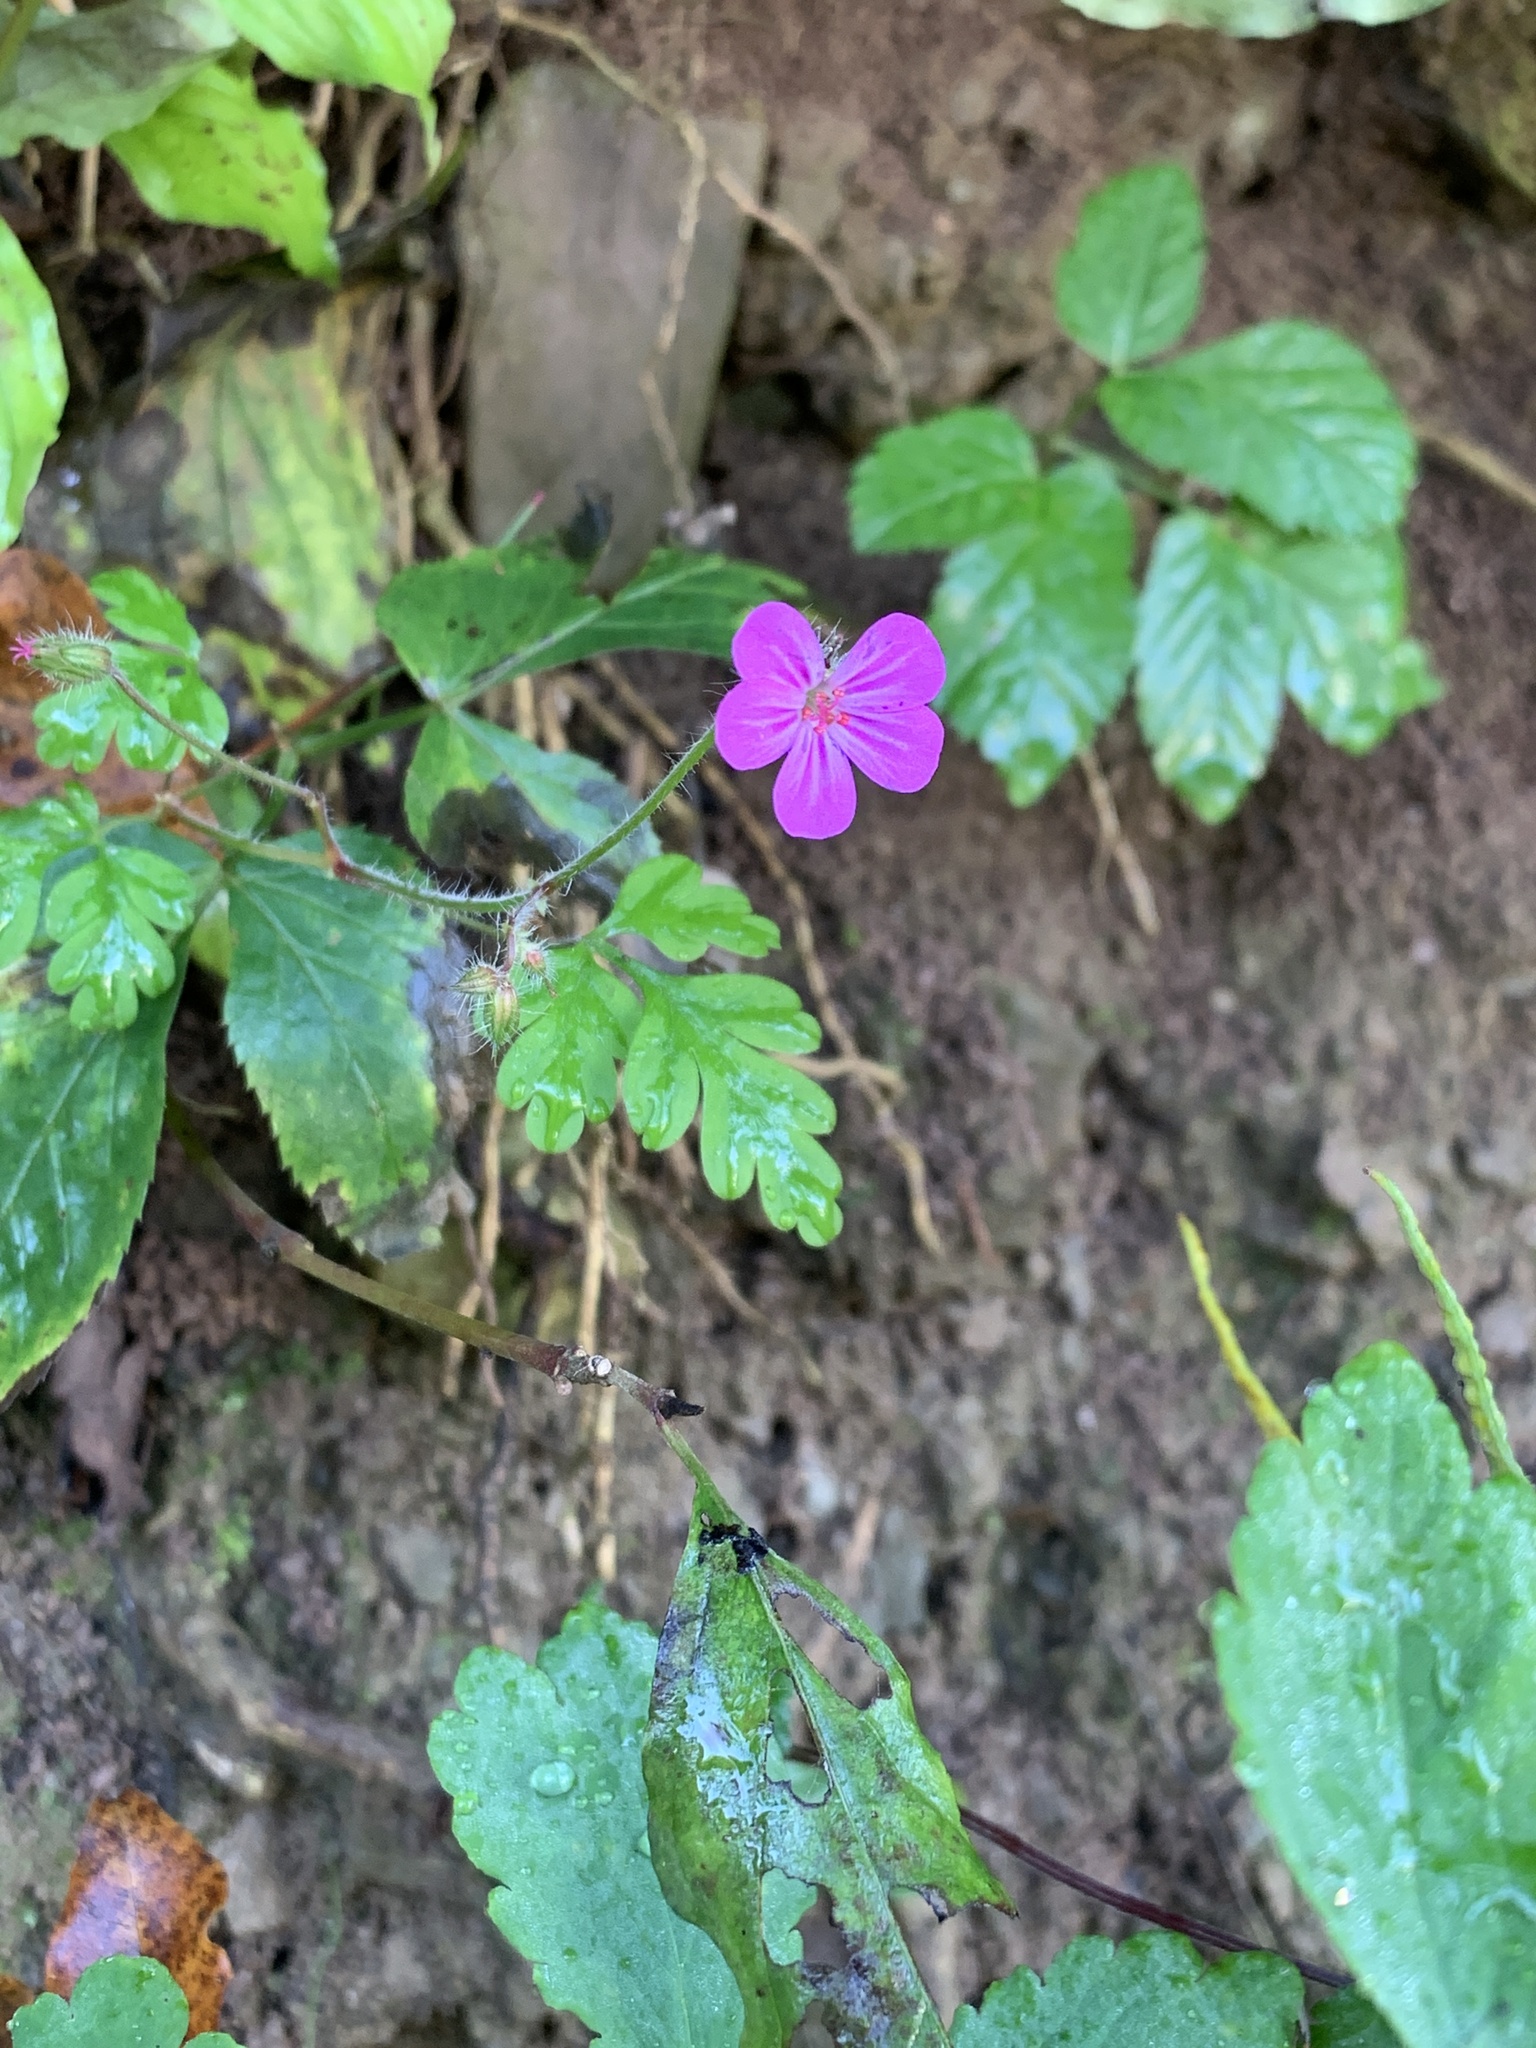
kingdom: Plantae
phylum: Tracheophyta
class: Magnoliopsida
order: Geraniales
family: Geraniaceae
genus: Geranium
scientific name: Geranium robertianum
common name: Herb-robert
